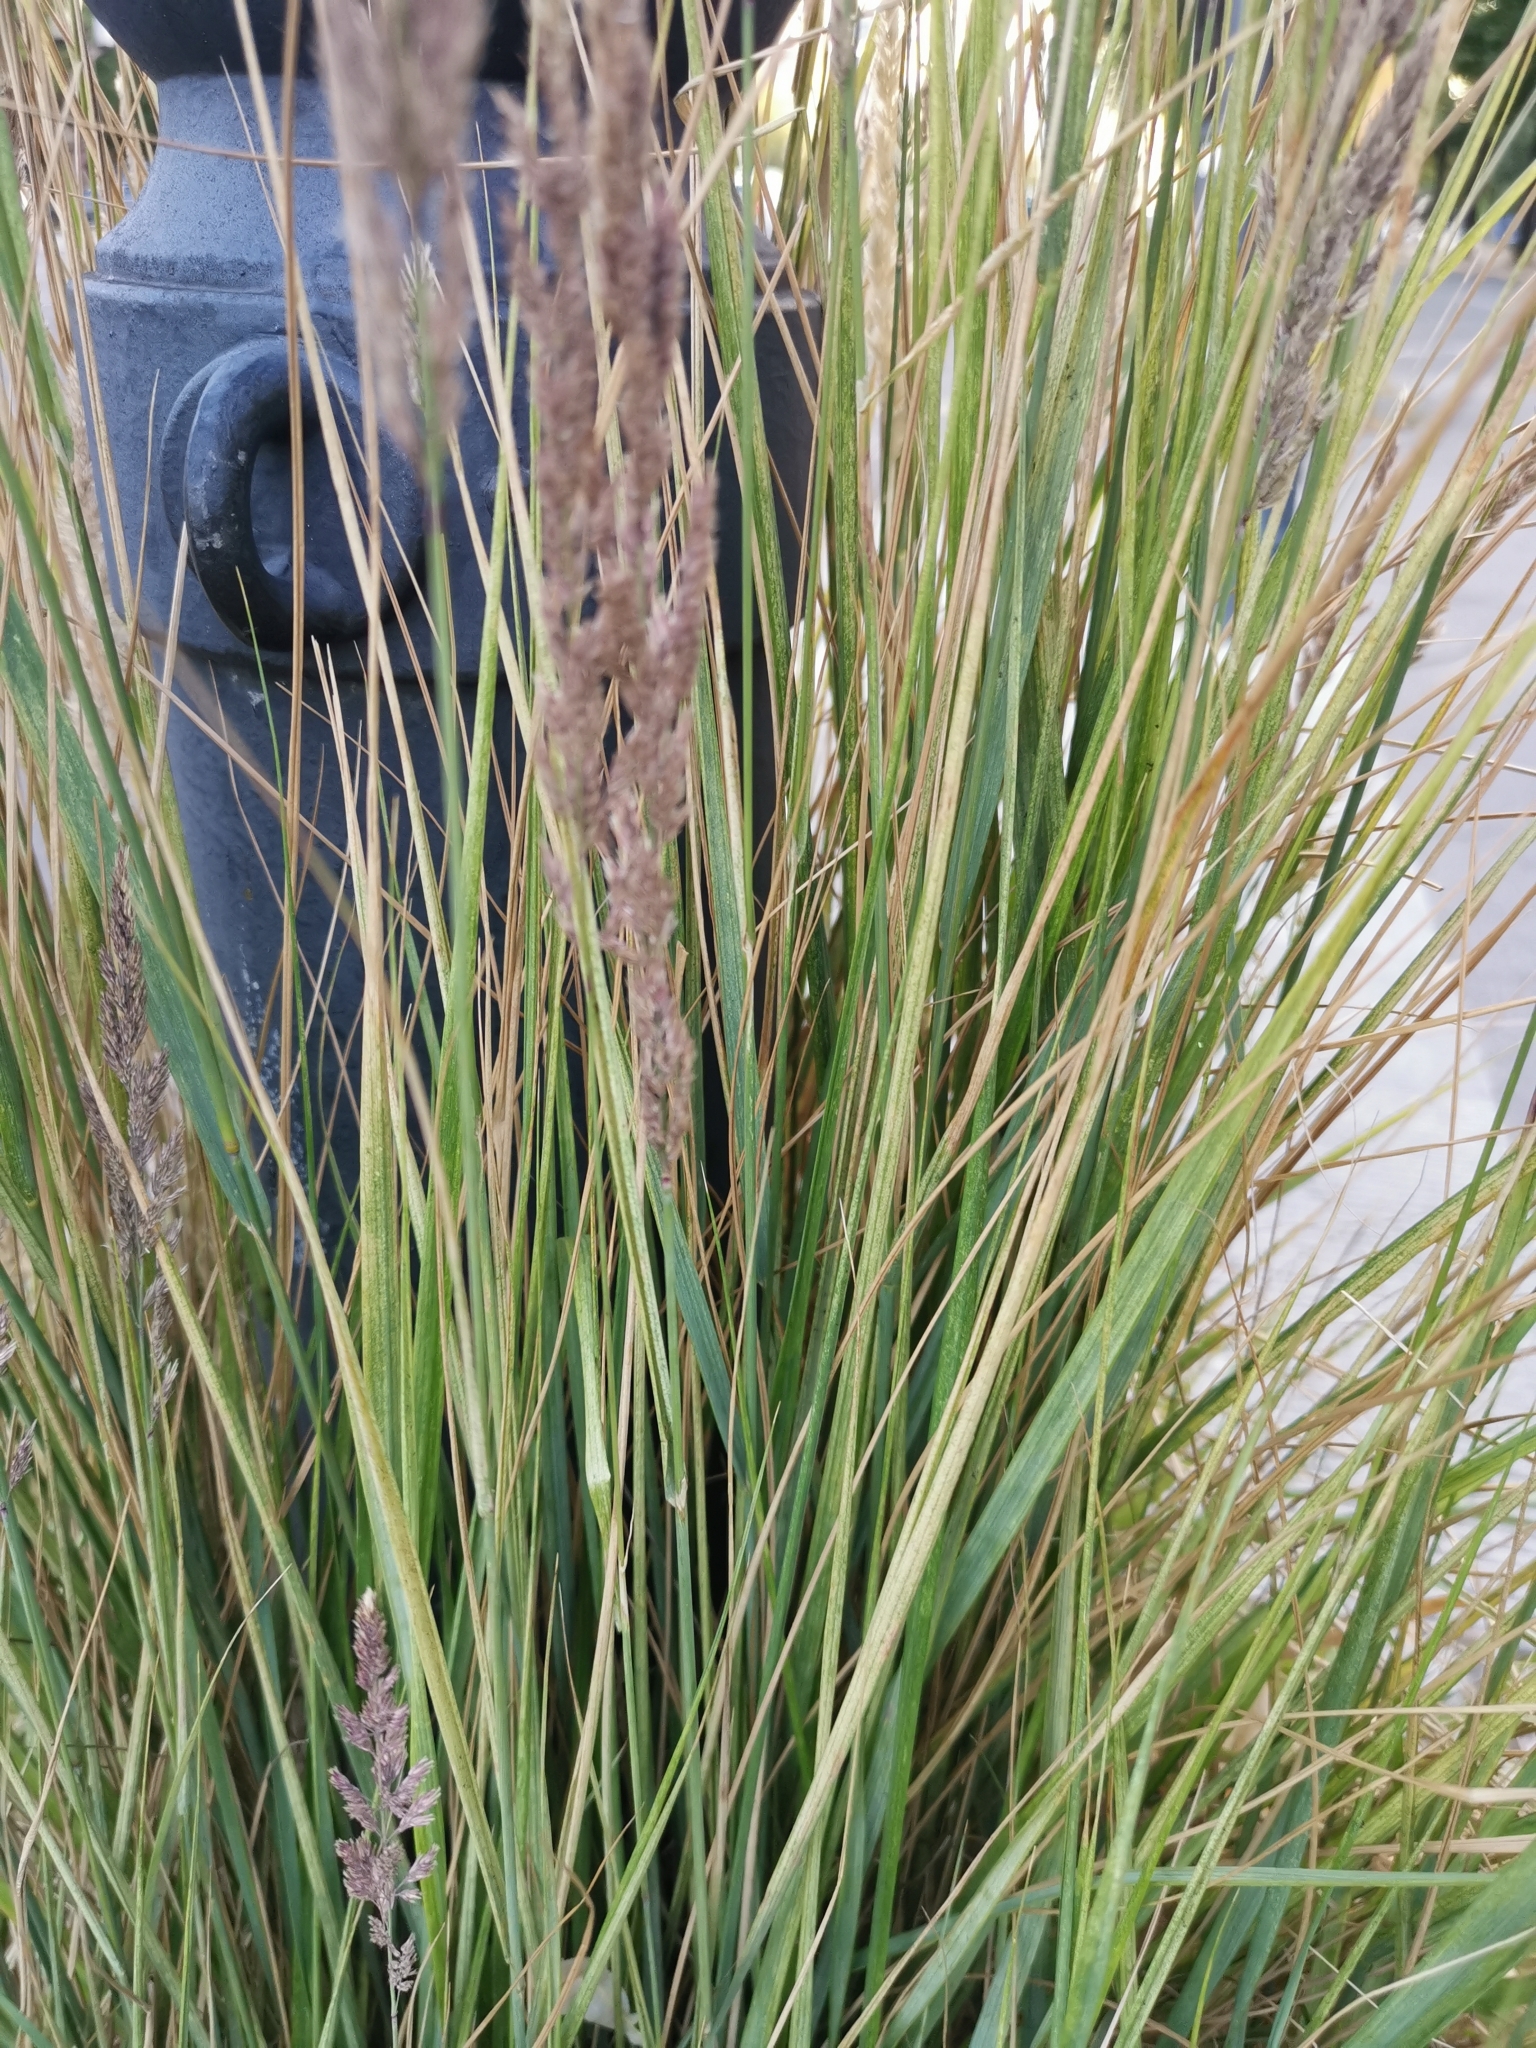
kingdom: Plantae
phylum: Tracheophyta
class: Liliopsida
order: Poales
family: Poaceae
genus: Calamagrostis
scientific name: Calamagrostis epigejos
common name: Wood small-reed
